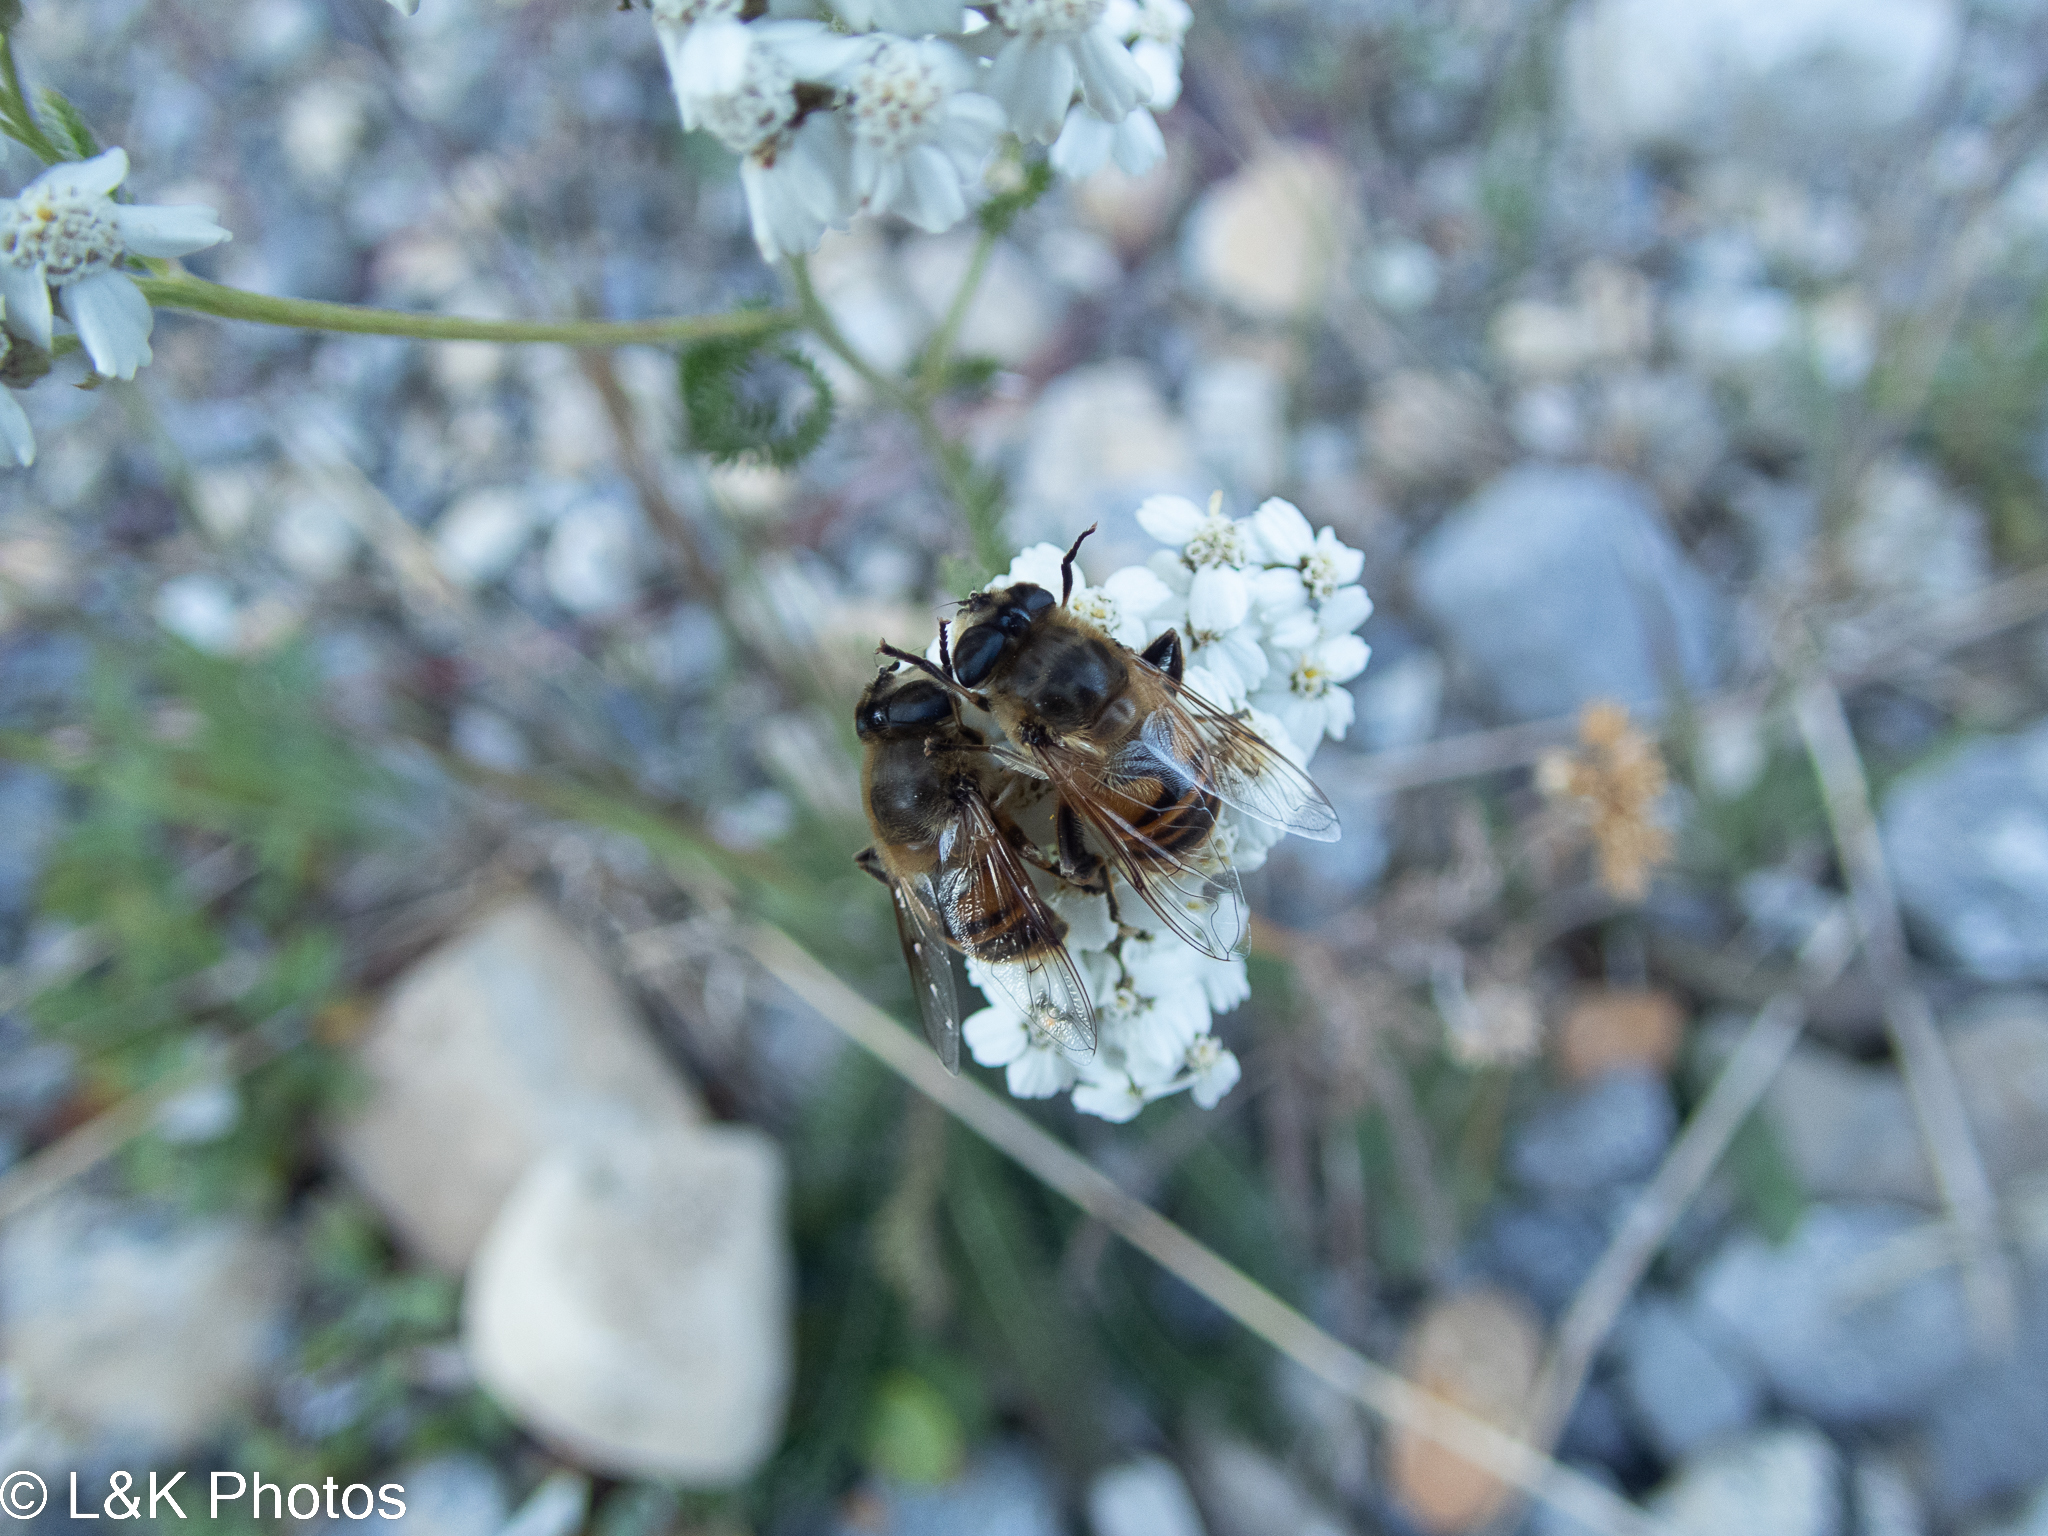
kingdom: Animalia
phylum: Arthropoda
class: Insecta
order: Diptera
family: Syrphidae
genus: Eristalis
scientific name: Eristalis tenax
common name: Drone fly
